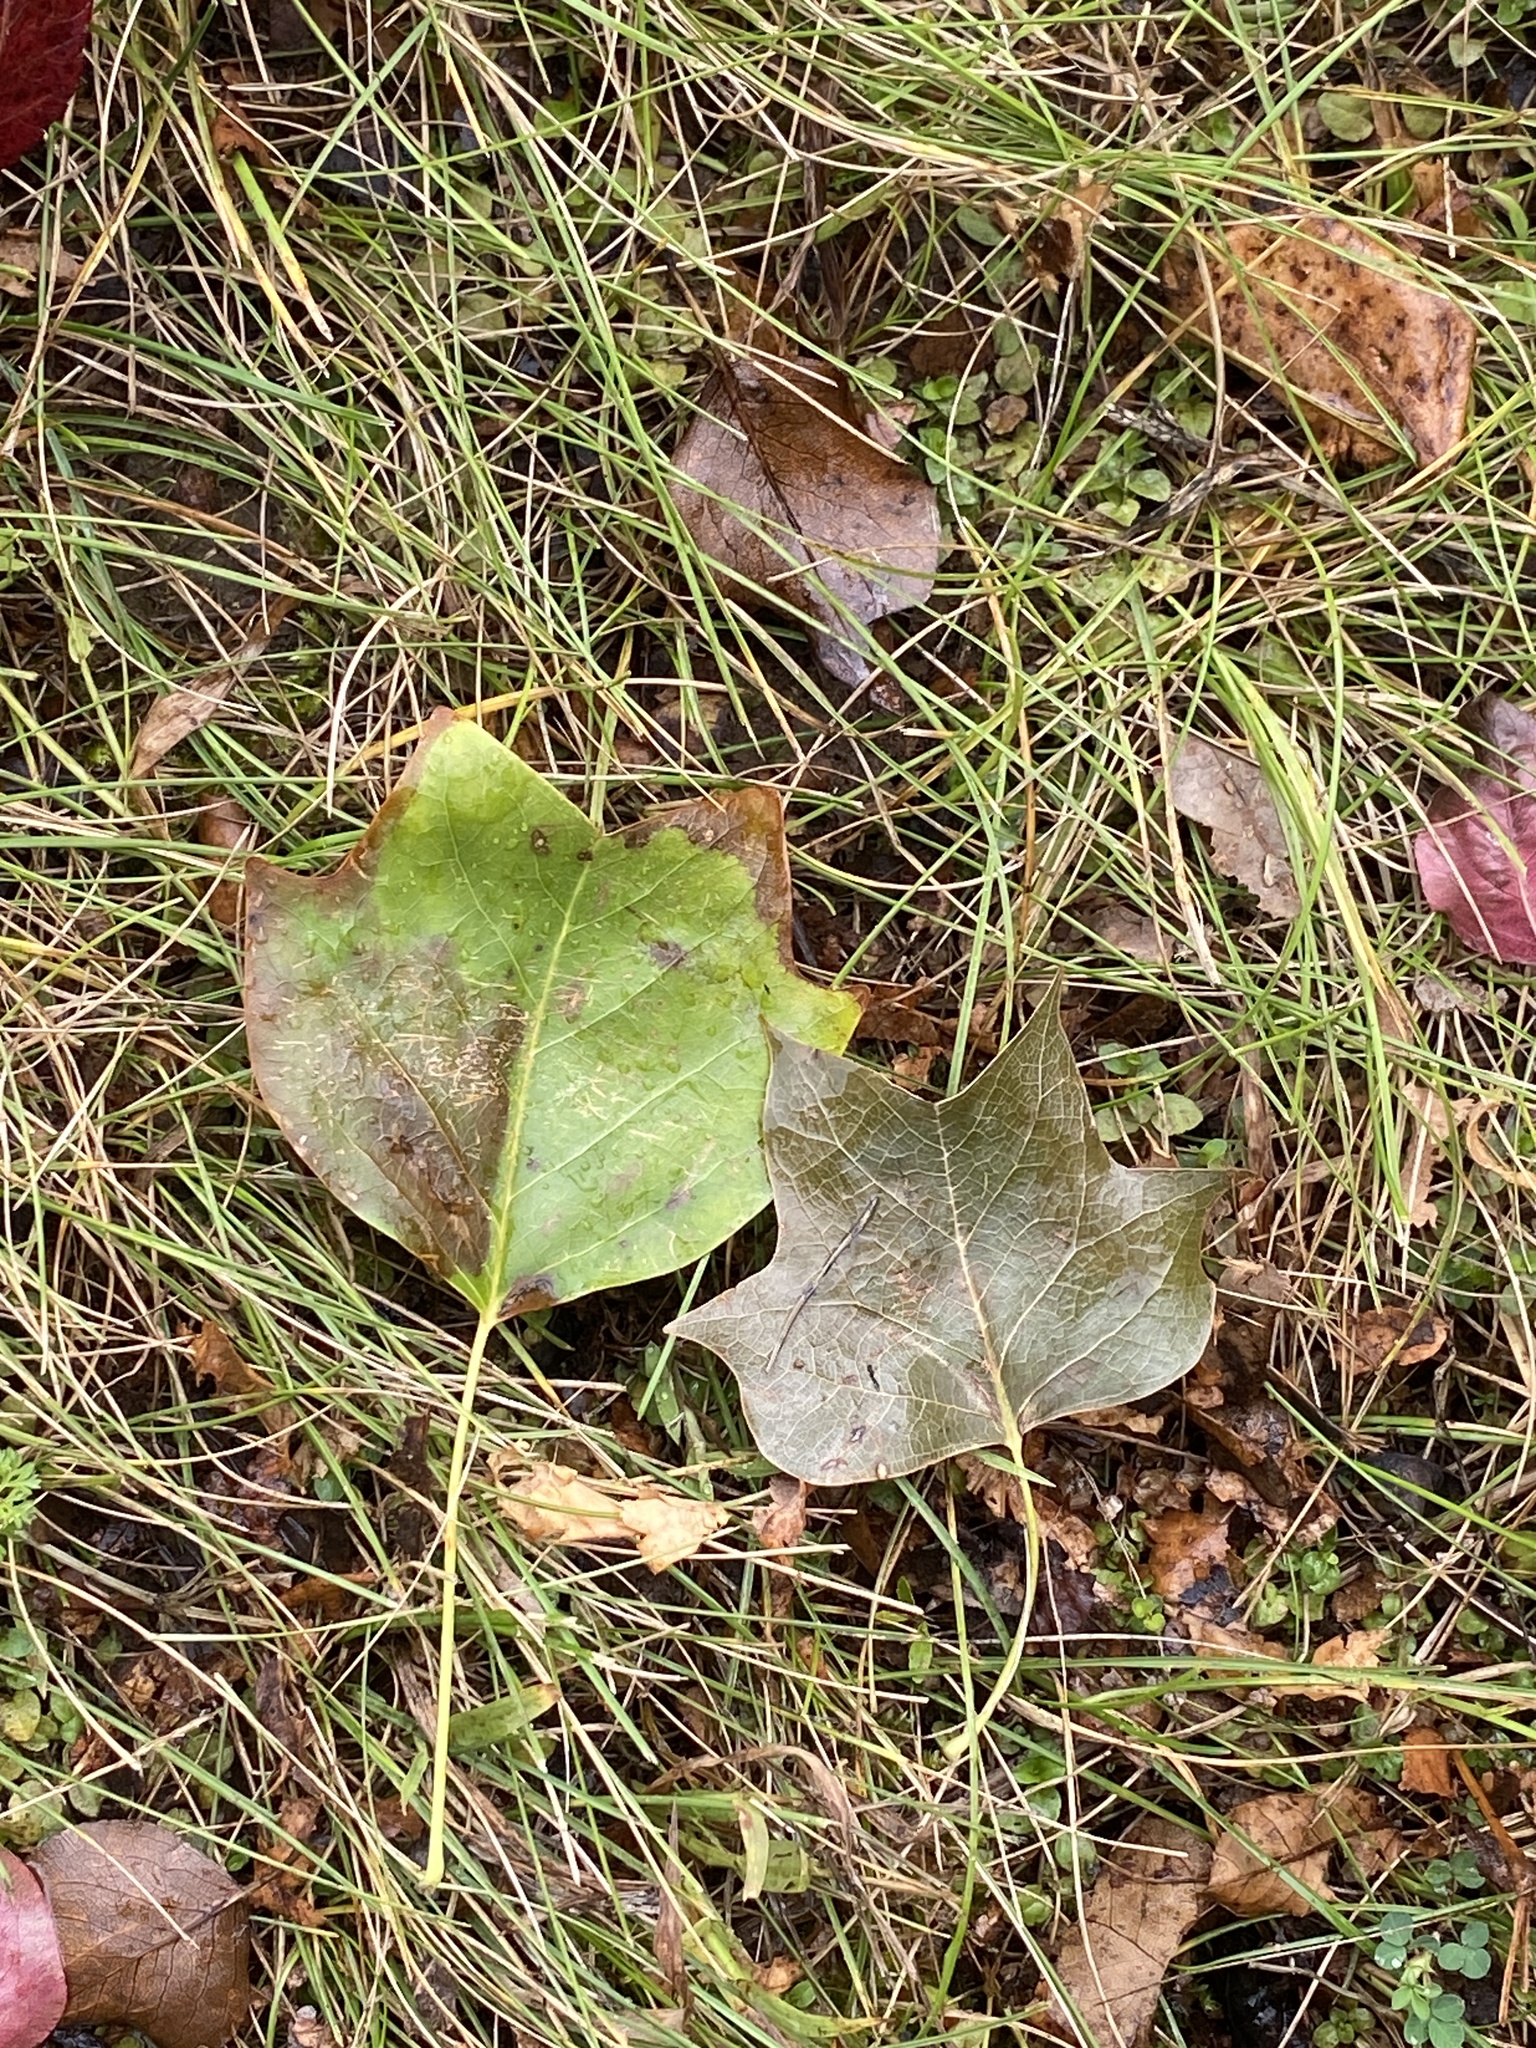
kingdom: Plantae
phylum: Tracheophyta
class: Magnoliopsida
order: Magnoliales
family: Magnoliaceae
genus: Liriodendron
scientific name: Liriodendron tulipifera
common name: Tulip tree
